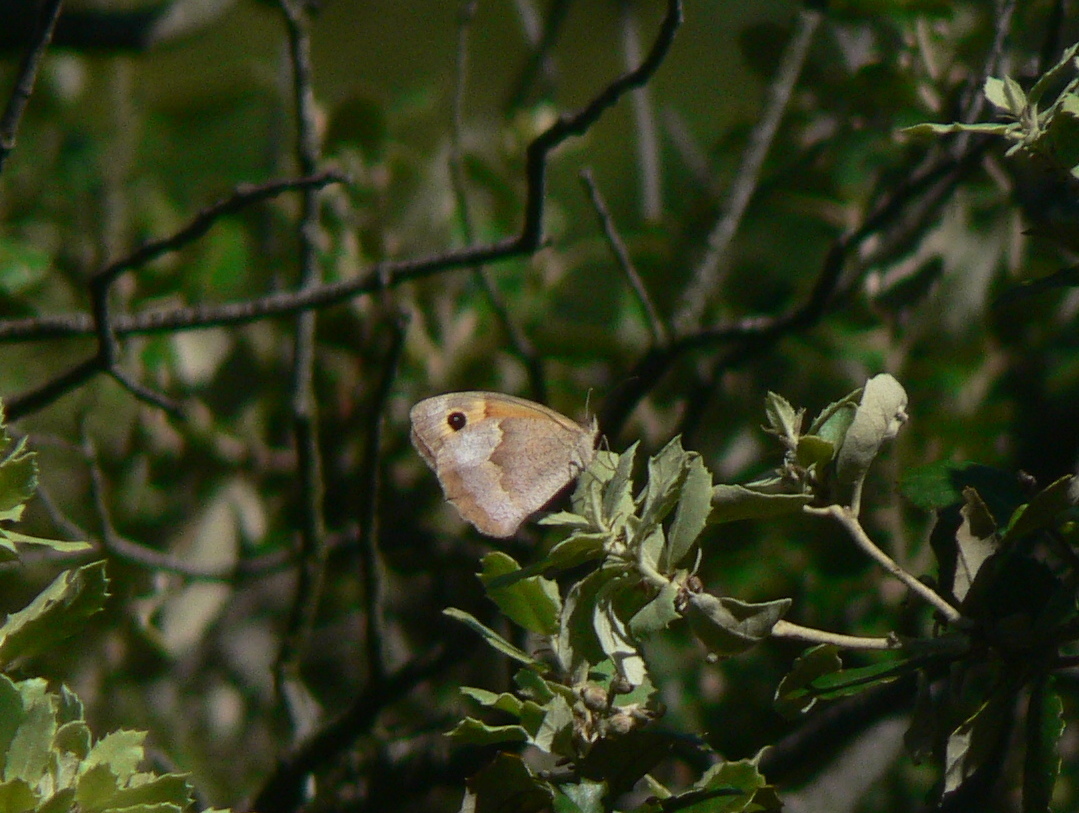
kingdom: Animalia
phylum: Arthropoda
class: Insecta
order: Lepidoptera
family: Nymphalidae
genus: Maniola
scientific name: Maniola jurtina
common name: Meadow brown
